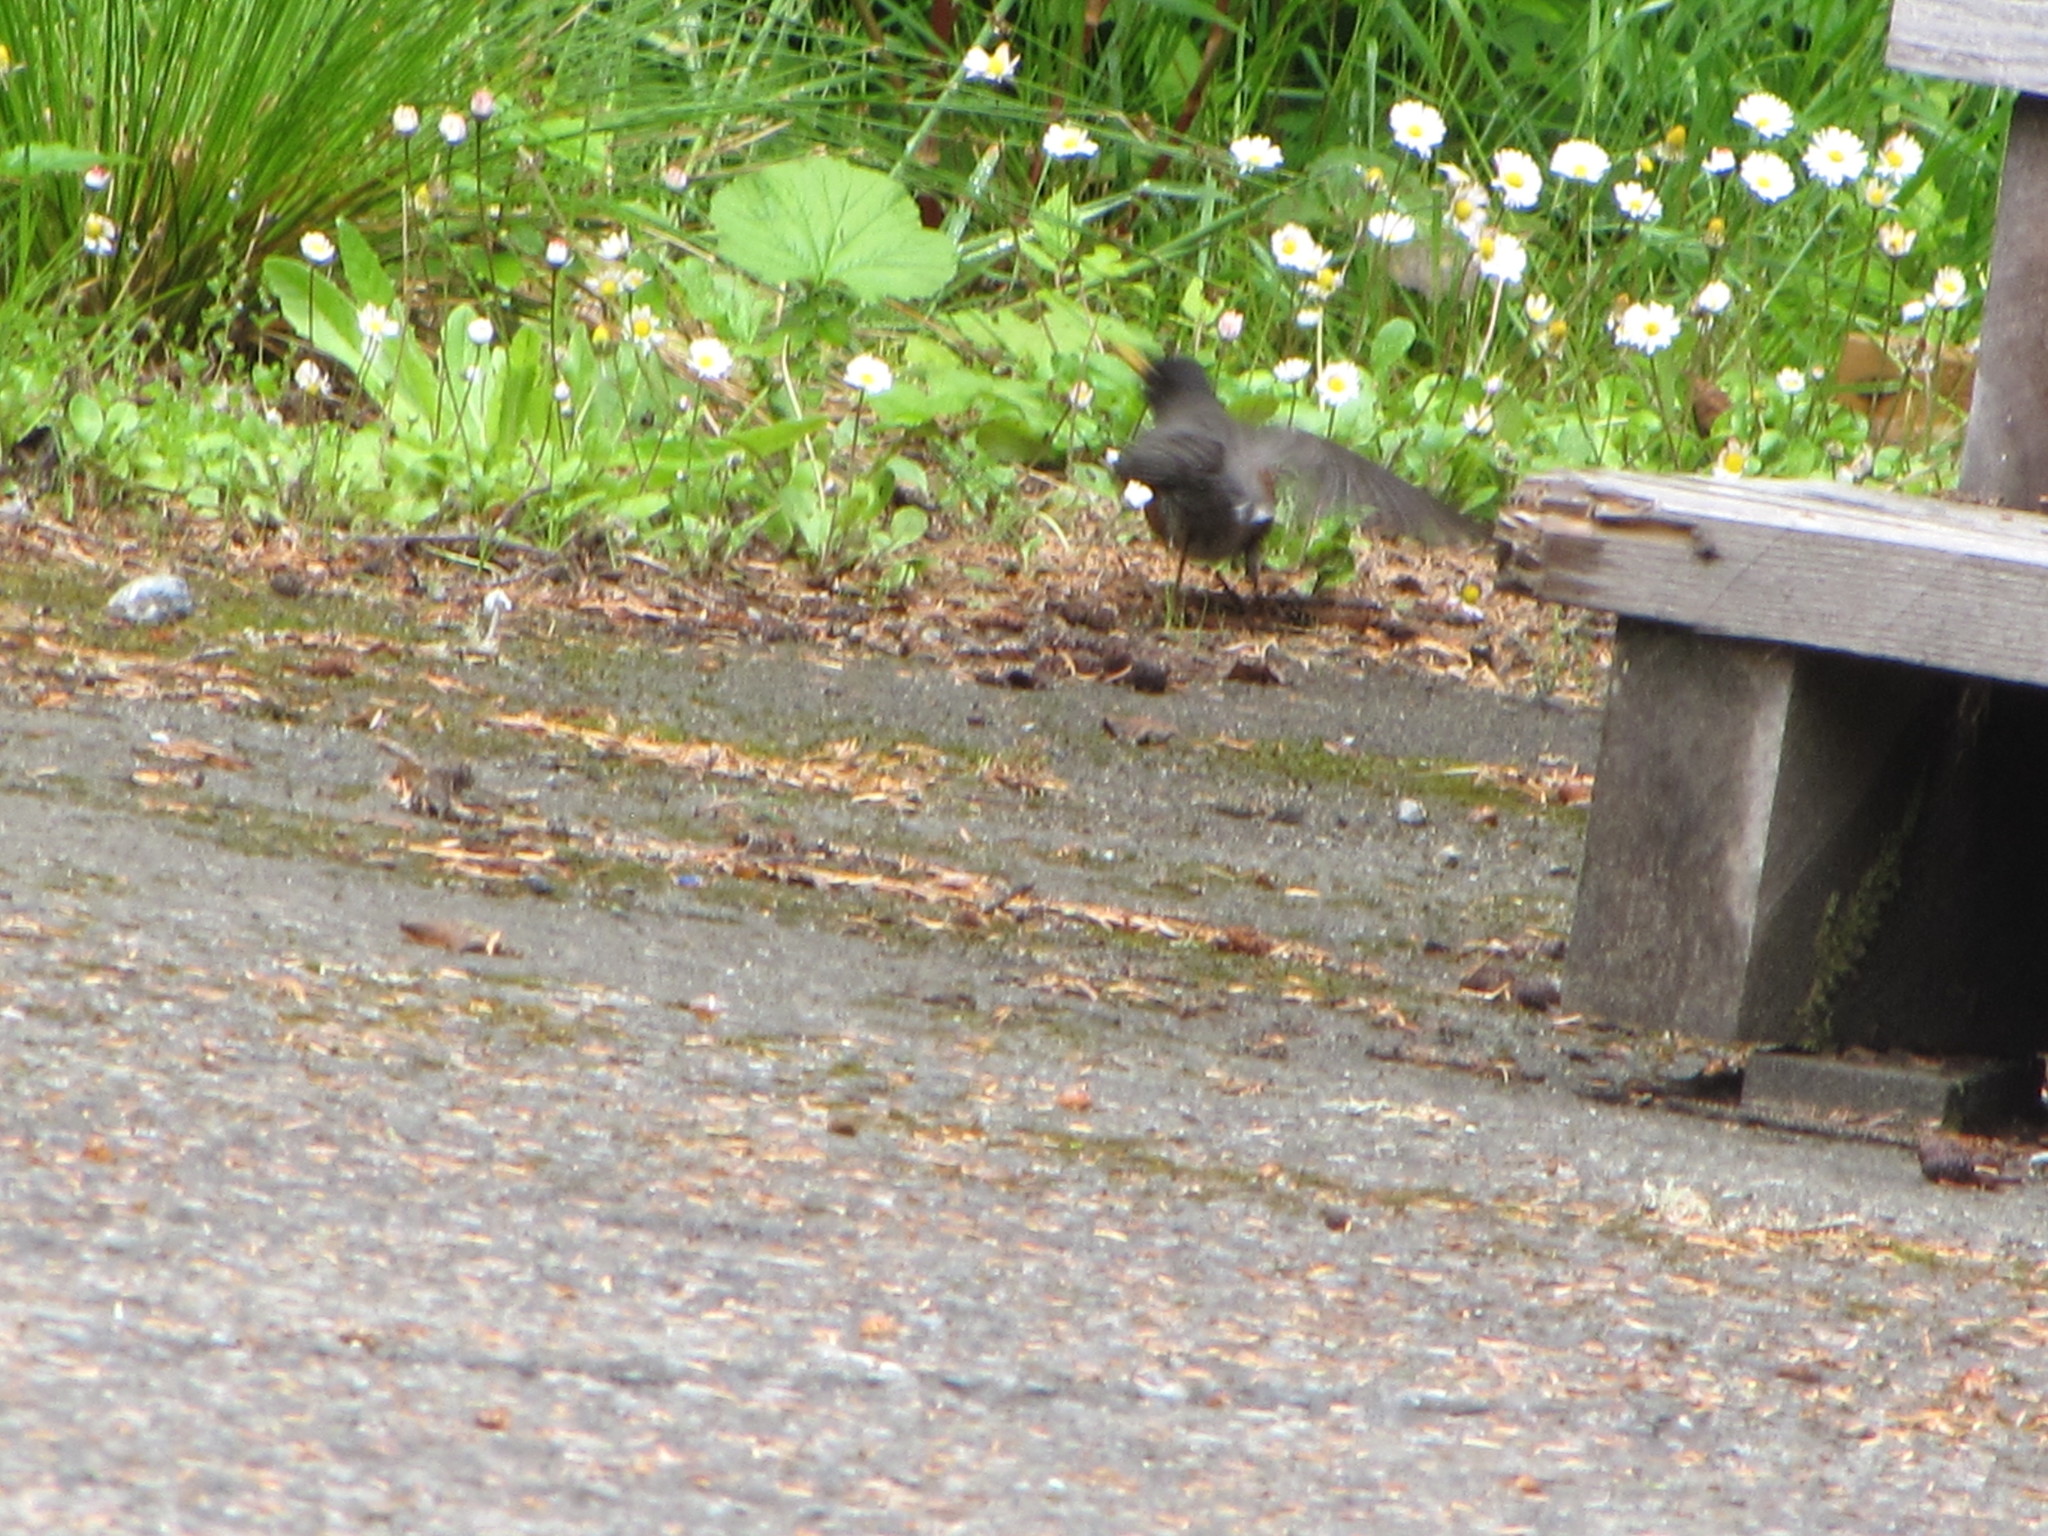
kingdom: Animalia
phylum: Chordata
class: Aves
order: Passeriformes
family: Turdidae
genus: Turdus
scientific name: Turdus migratorius
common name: American robin
